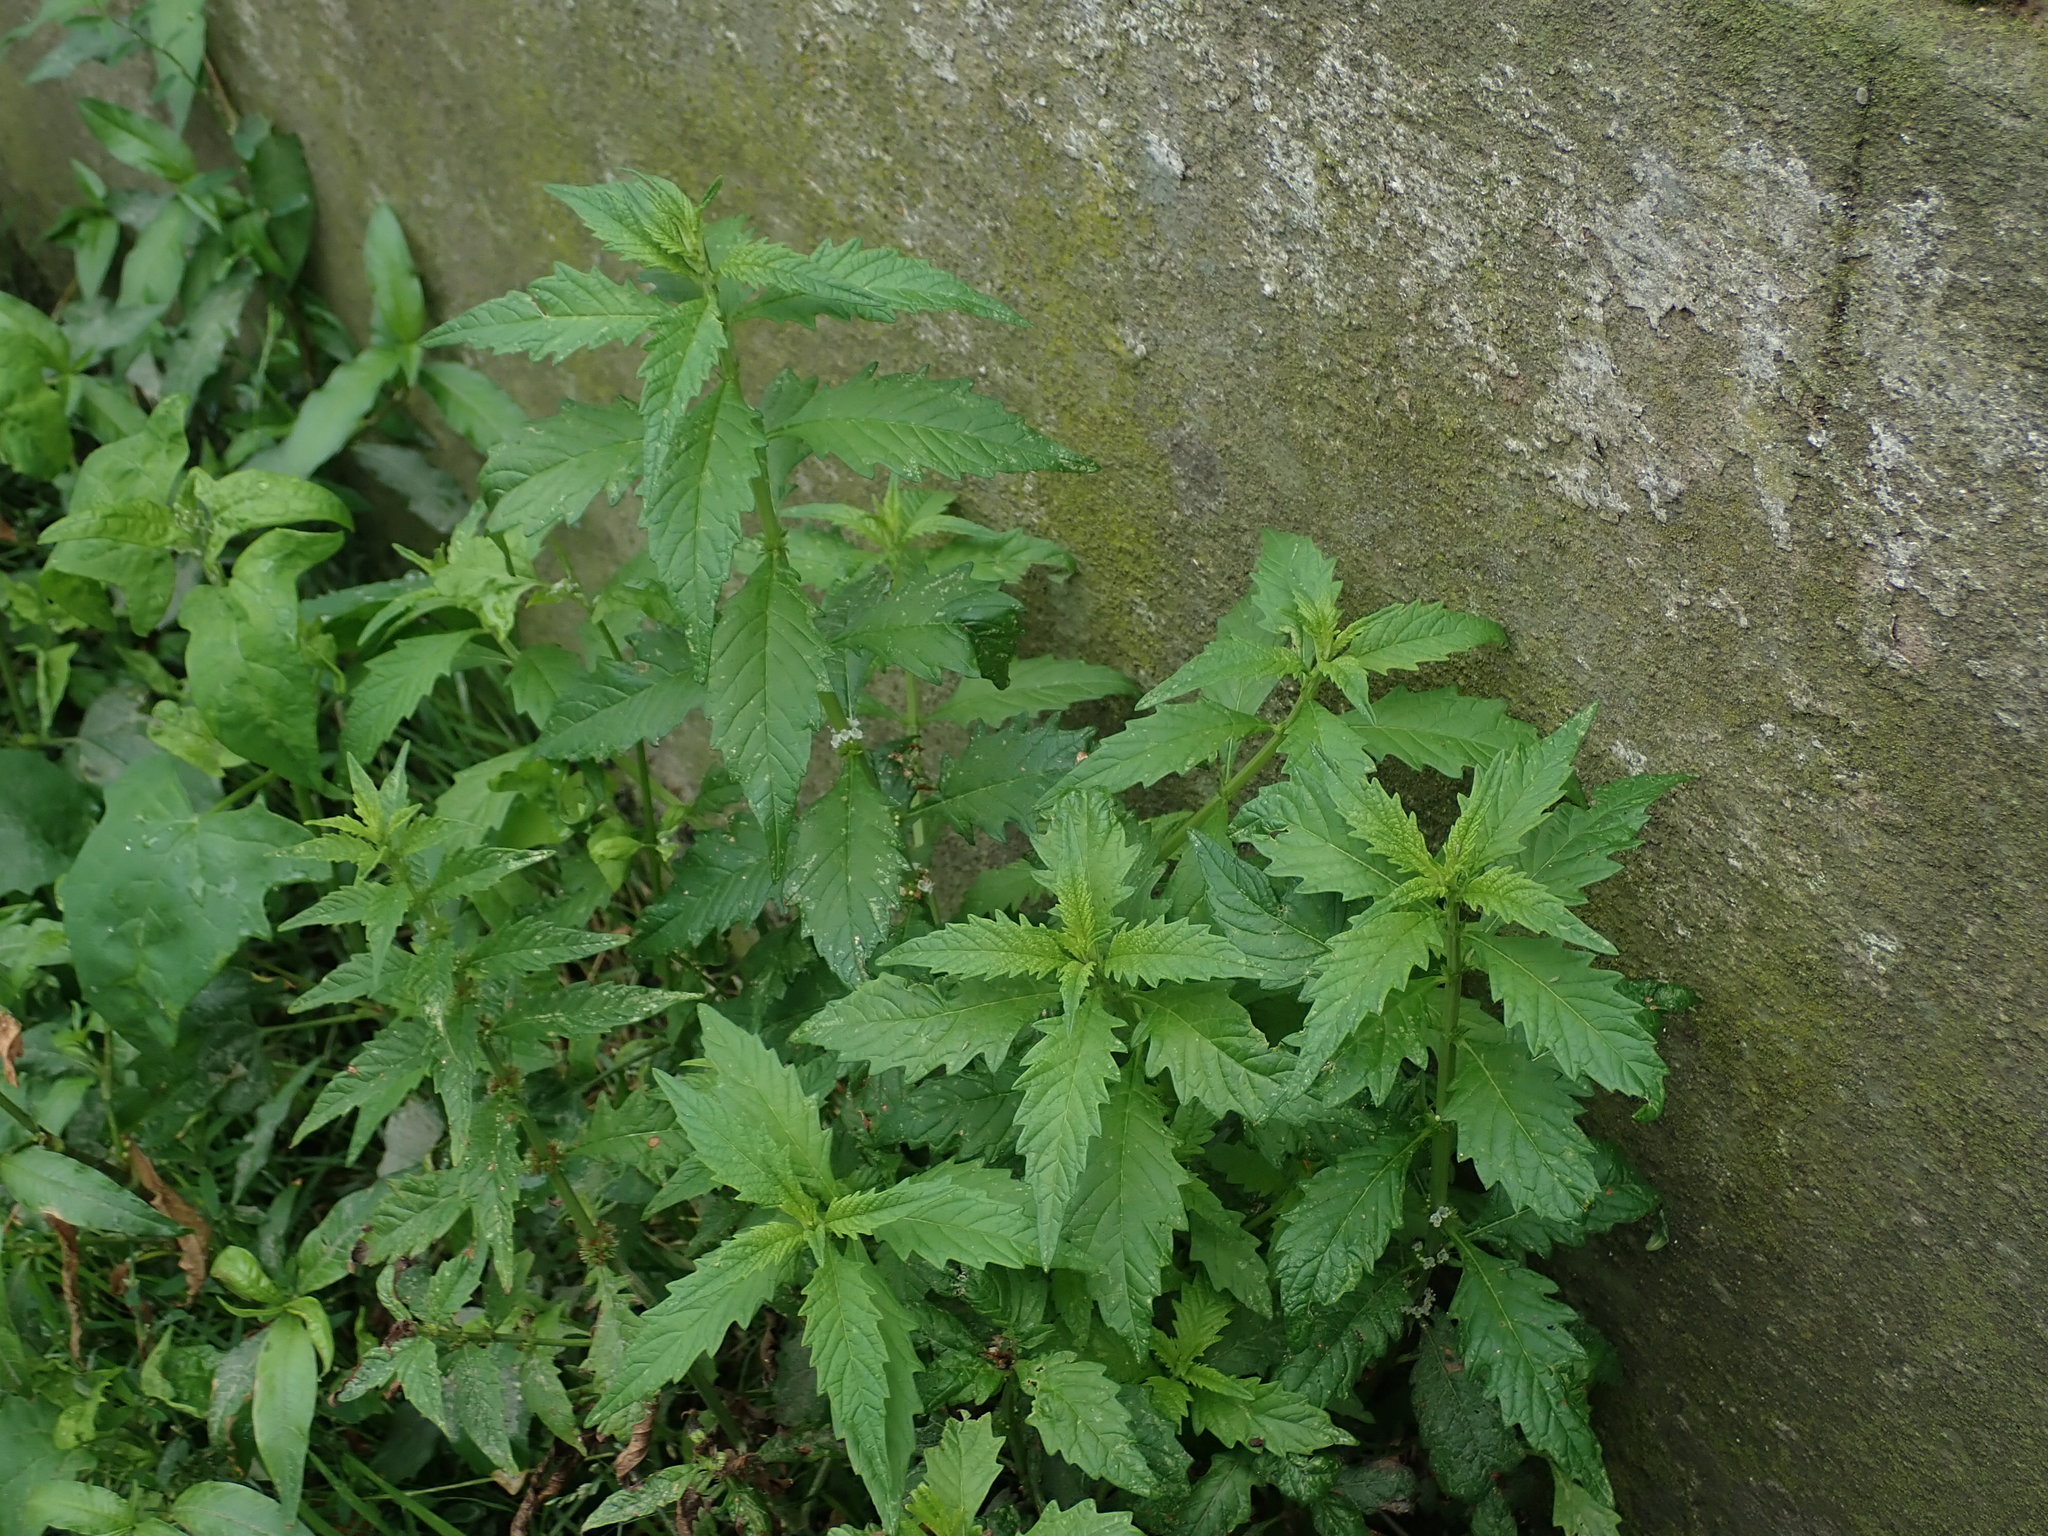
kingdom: Plantae
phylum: Tracheophyta
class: Magnoliopsida
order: Lamiales
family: Lamiaceae
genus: Lycopus
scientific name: Lycopus europaeus
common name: European bugleweed
